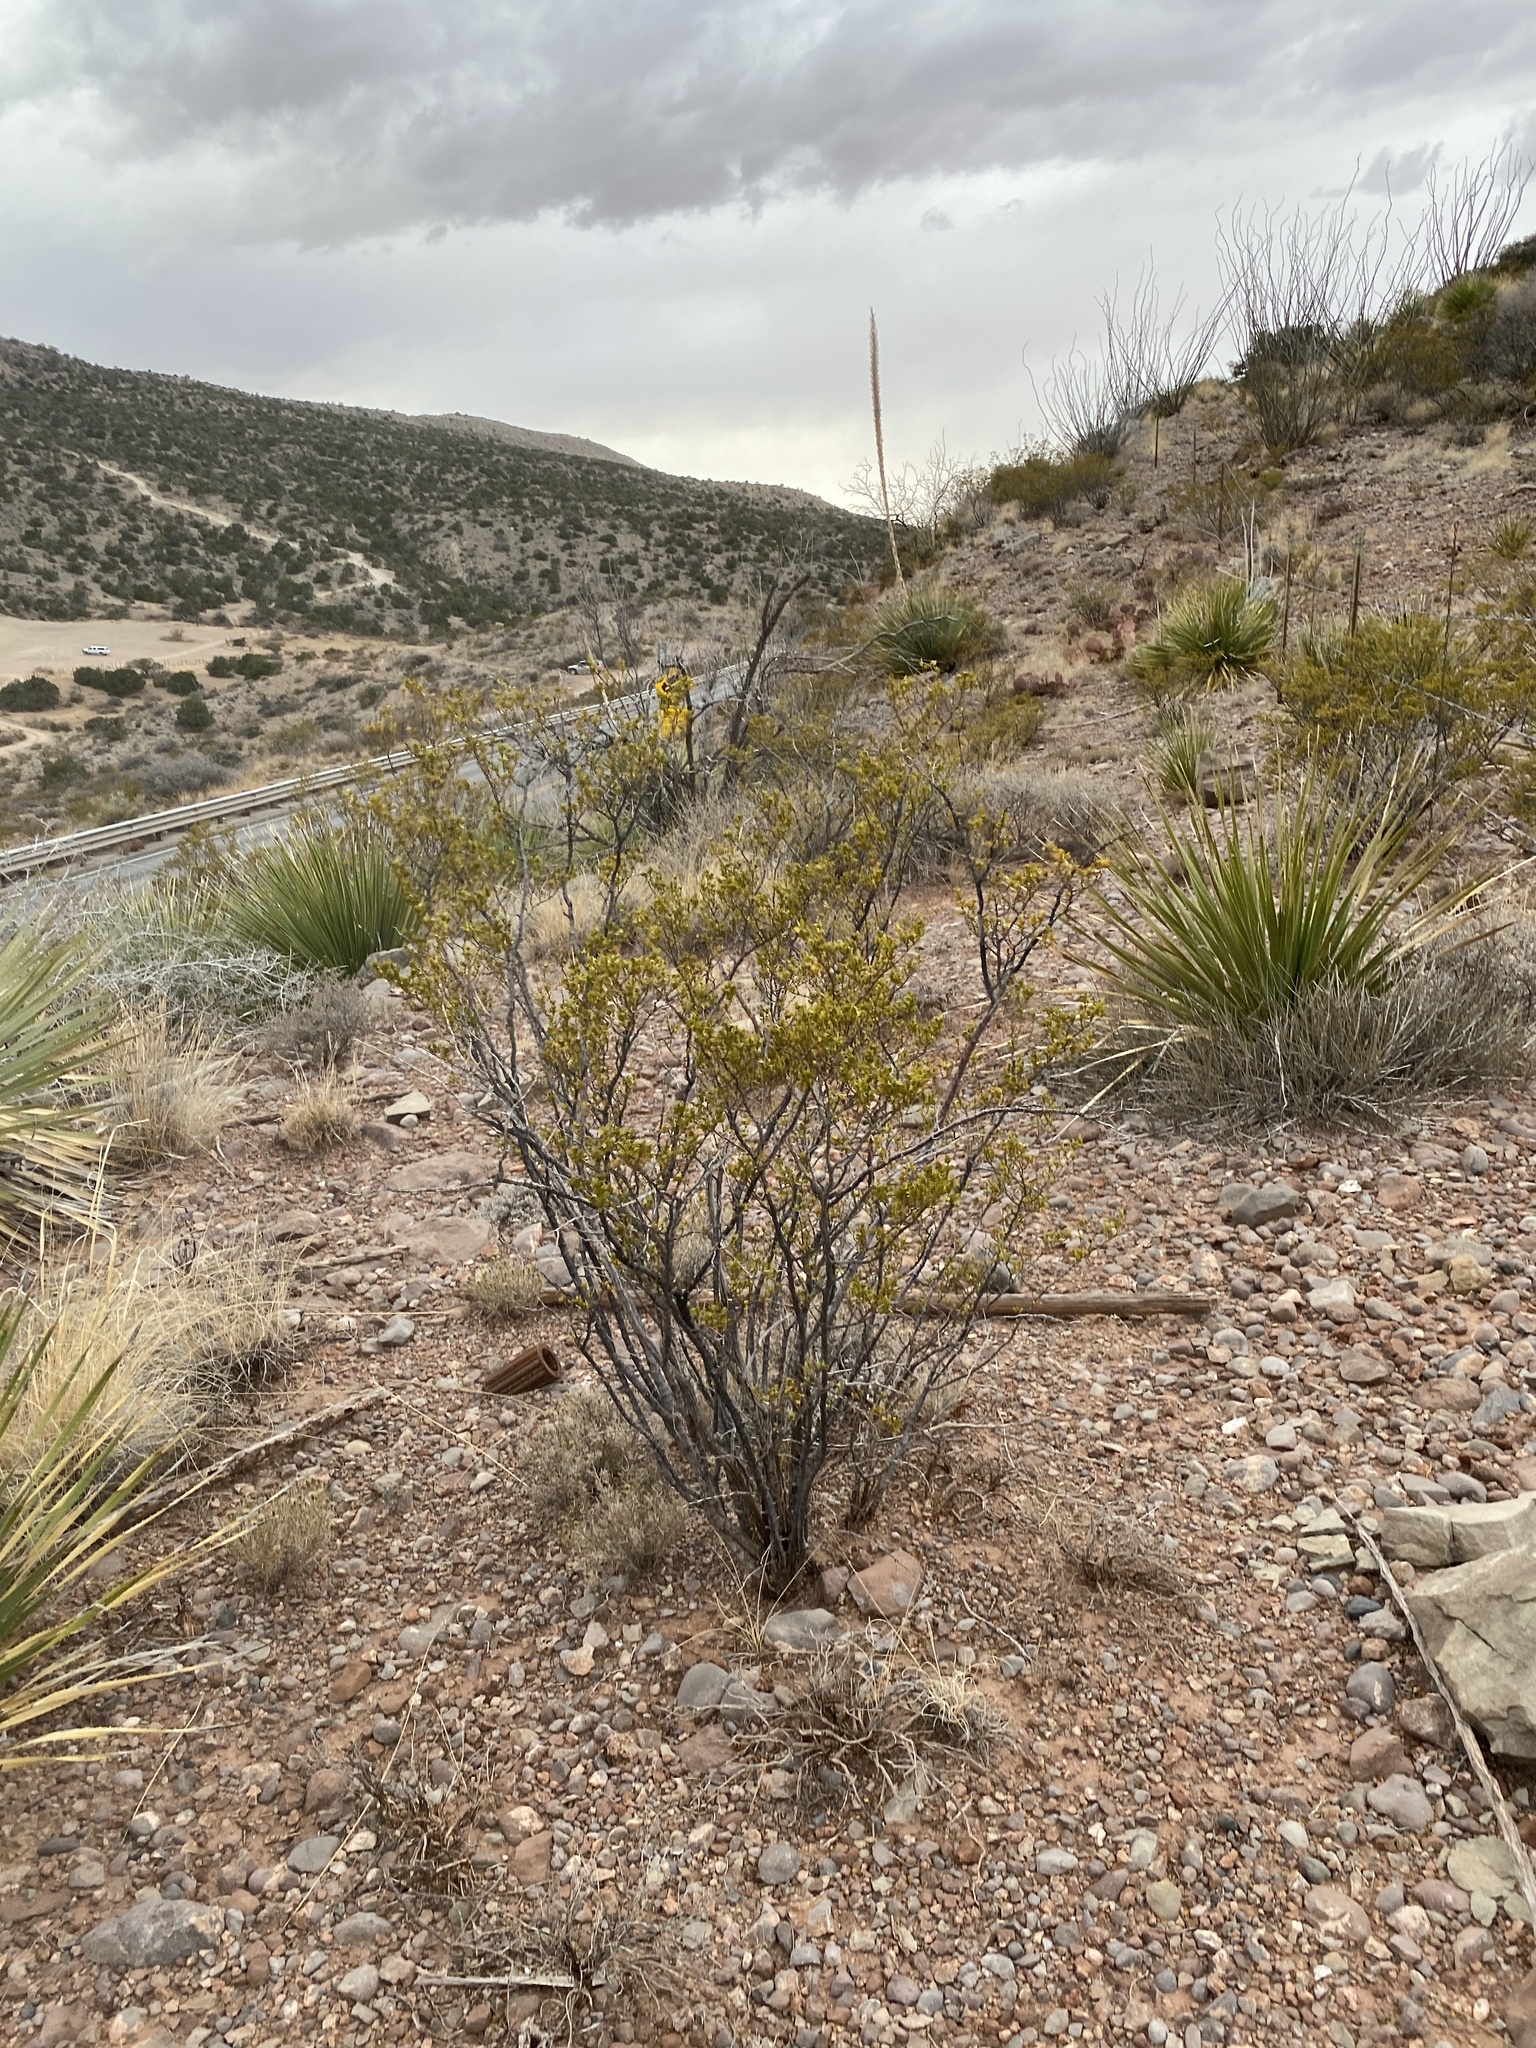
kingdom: Plantae
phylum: Tracheophyta
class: Magnoliopsida
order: Ericales
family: Fouquieriaceae
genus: Fouquieria
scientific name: Fouquieria splendens
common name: Vine-cactus
